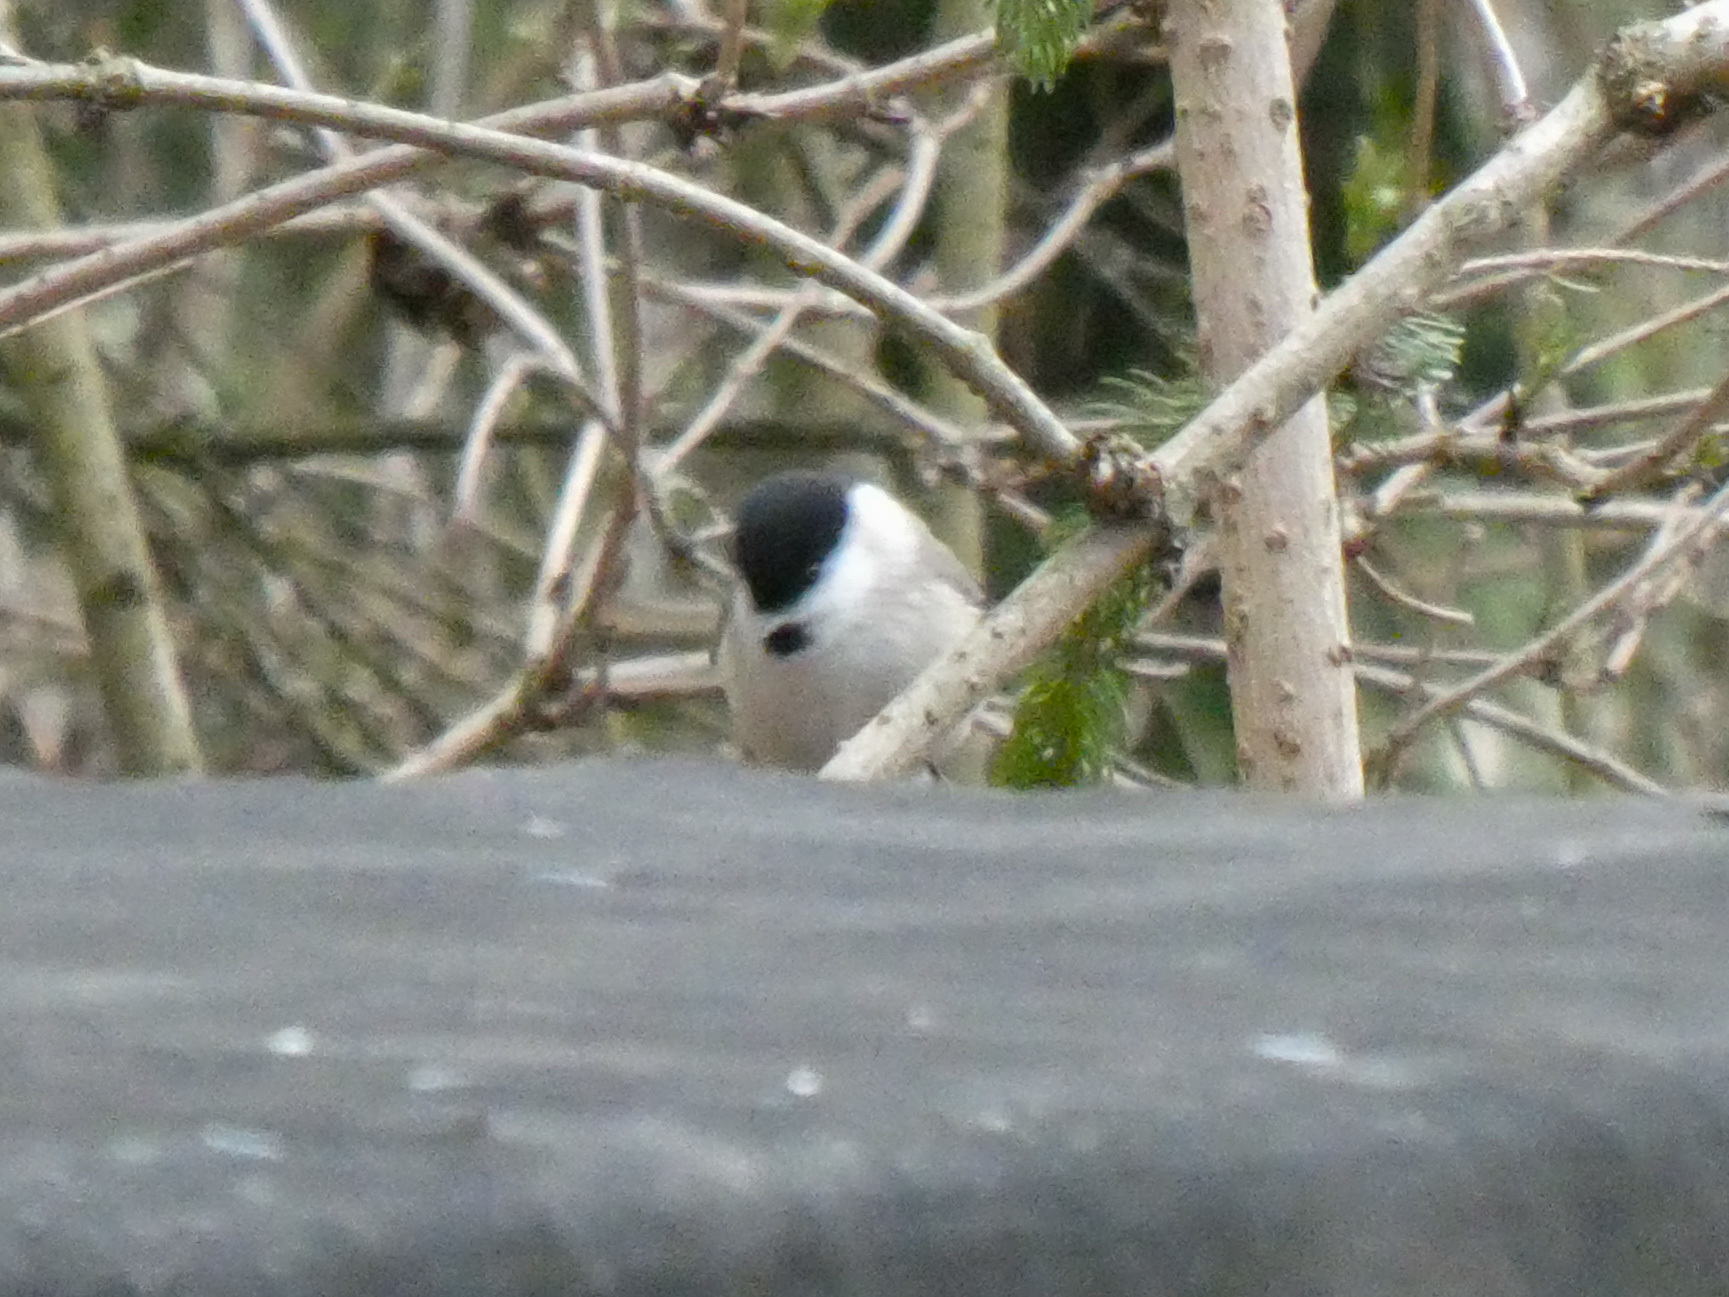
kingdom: Animalia
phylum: Chordata
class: Aves
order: Passeriformes
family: Paridae
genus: Poecile
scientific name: Poecile palustris
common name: Marsh tit
